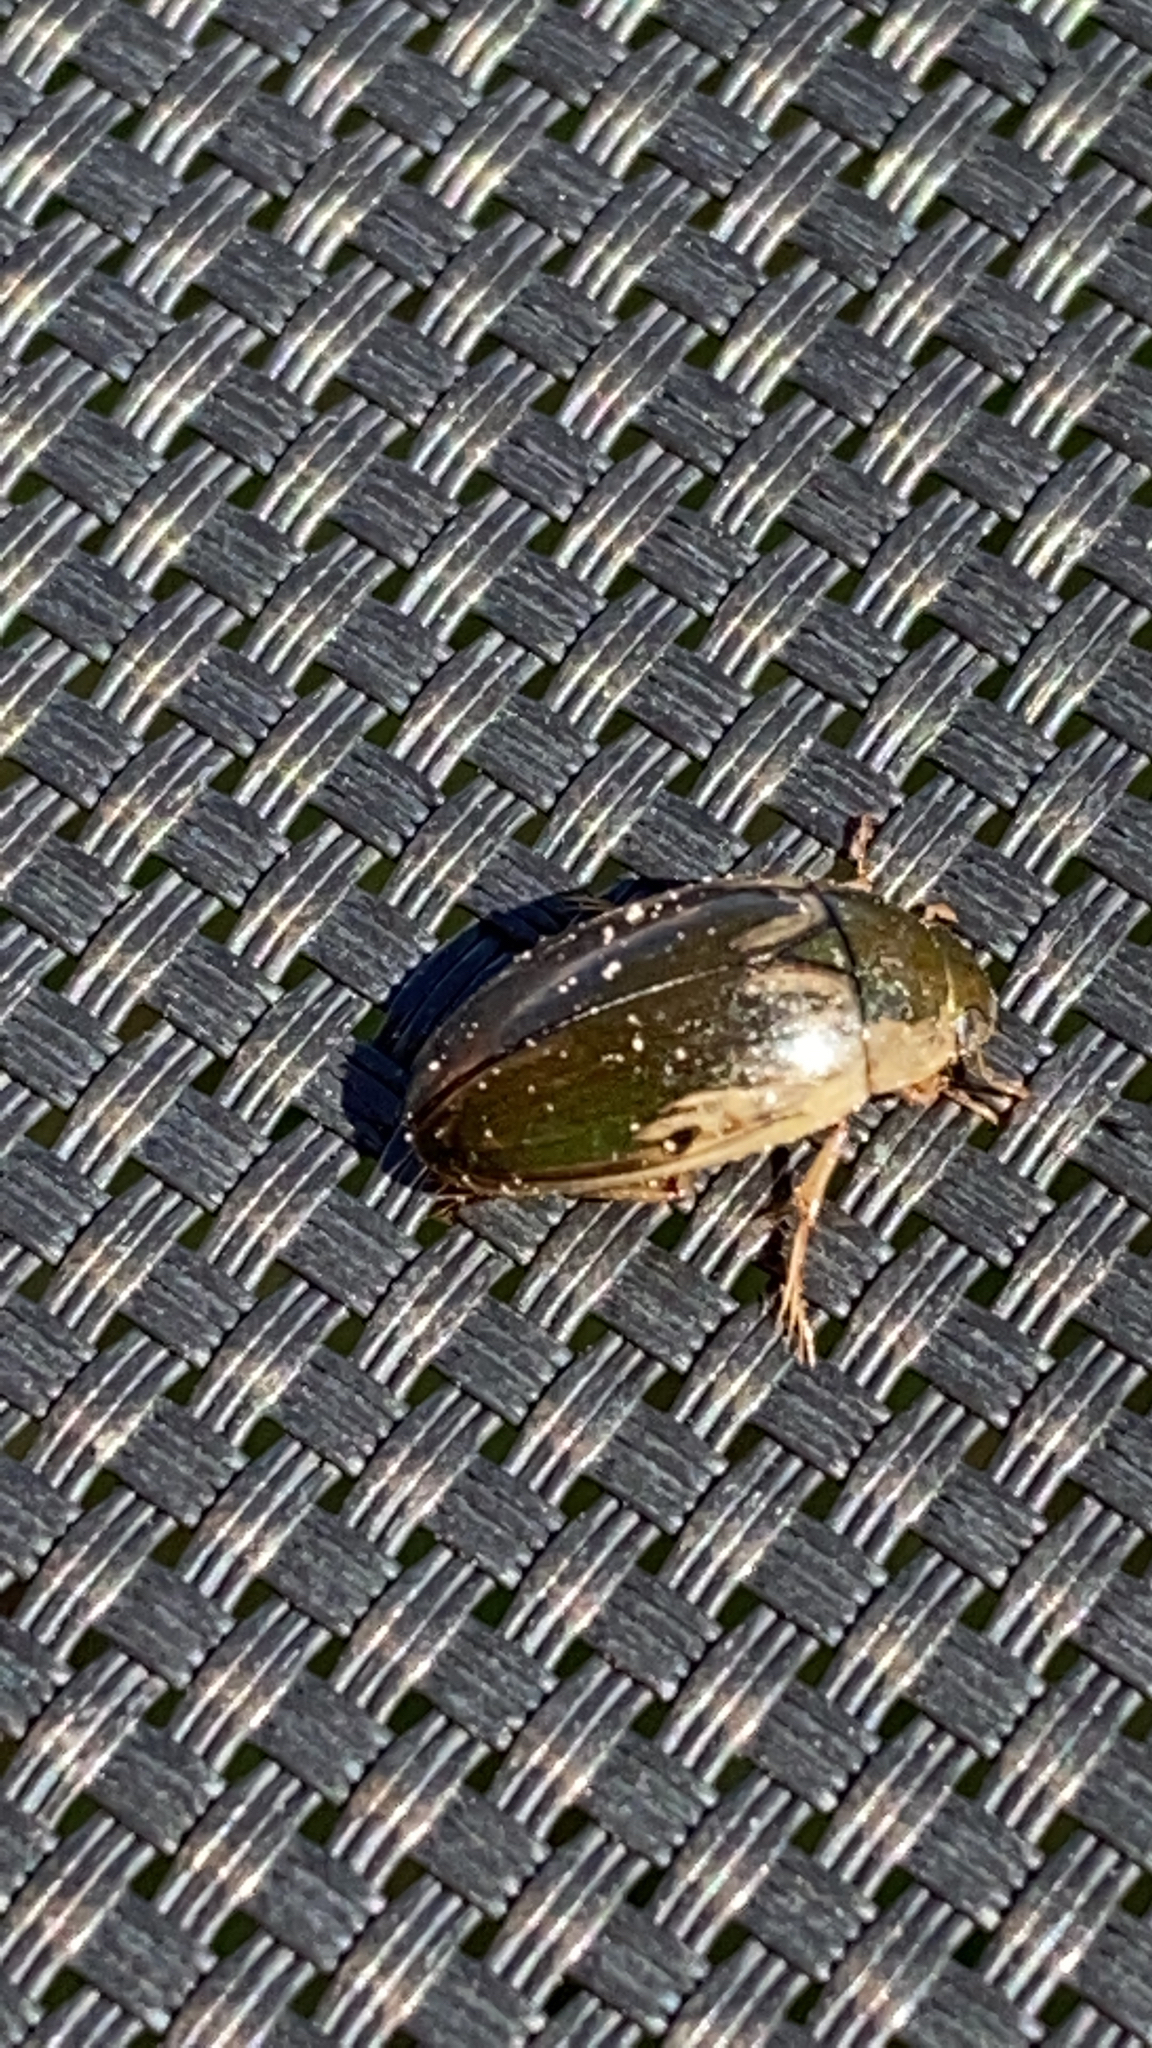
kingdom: Animalia
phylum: Arthropoda
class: Insecta
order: Coleoptera
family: Hydrophilidae
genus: Tropisternus
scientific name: Tropisternus lateralis
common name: Lateral-banded water scavenger beetle
